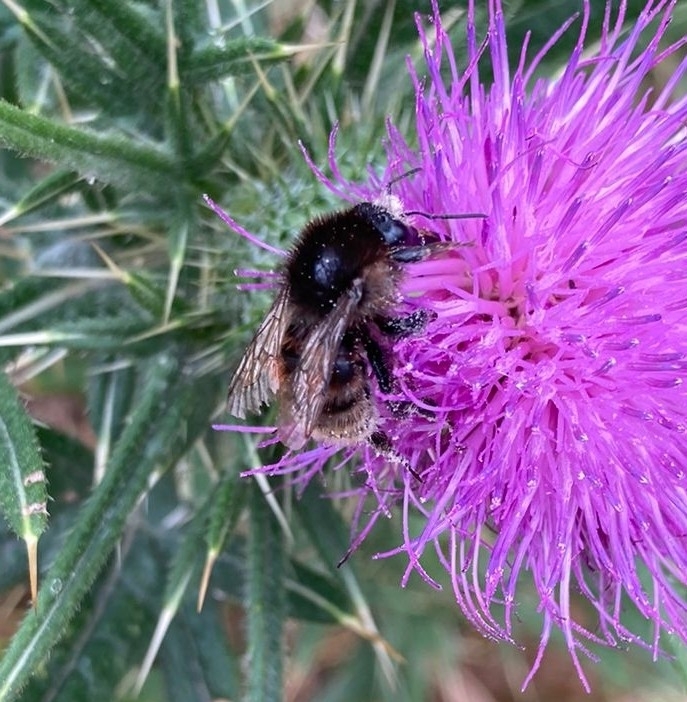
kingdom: Animalia
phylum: Arthropoda
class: Insecta
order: Hymenoptera
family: Apidae
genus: Bombus
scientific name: Bombus humilis
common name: Brown-banded carder-bee
